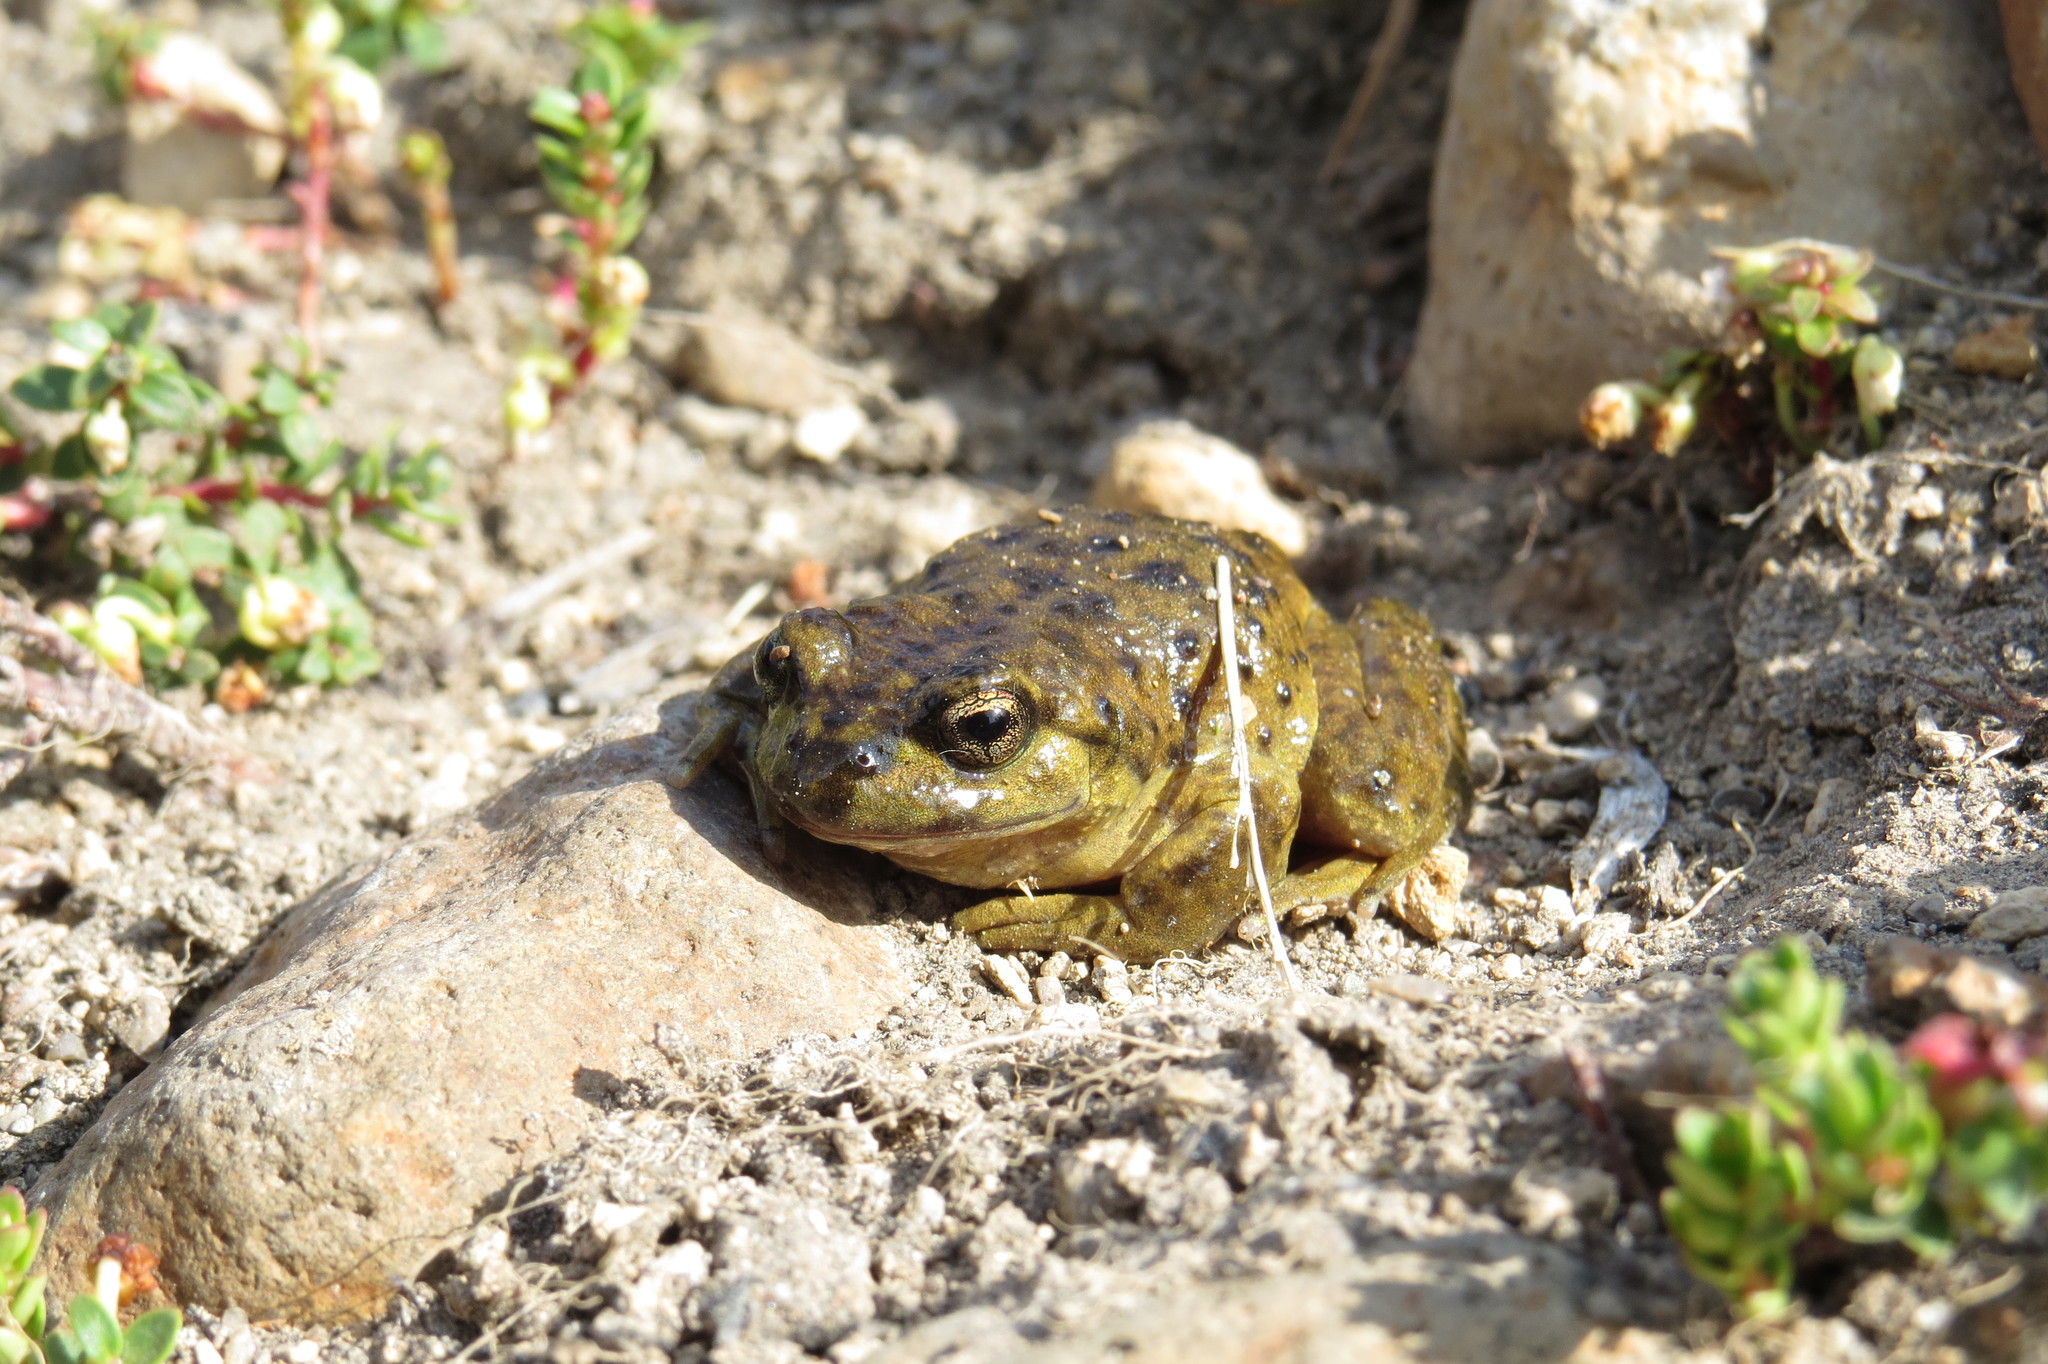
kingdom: Animalia
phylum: Chordata
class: Amphibia
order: Anura
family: Alsodidae
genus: Alsodes
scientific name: Alsodes pehuenche
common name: Pehuenche spiny-chest frog
